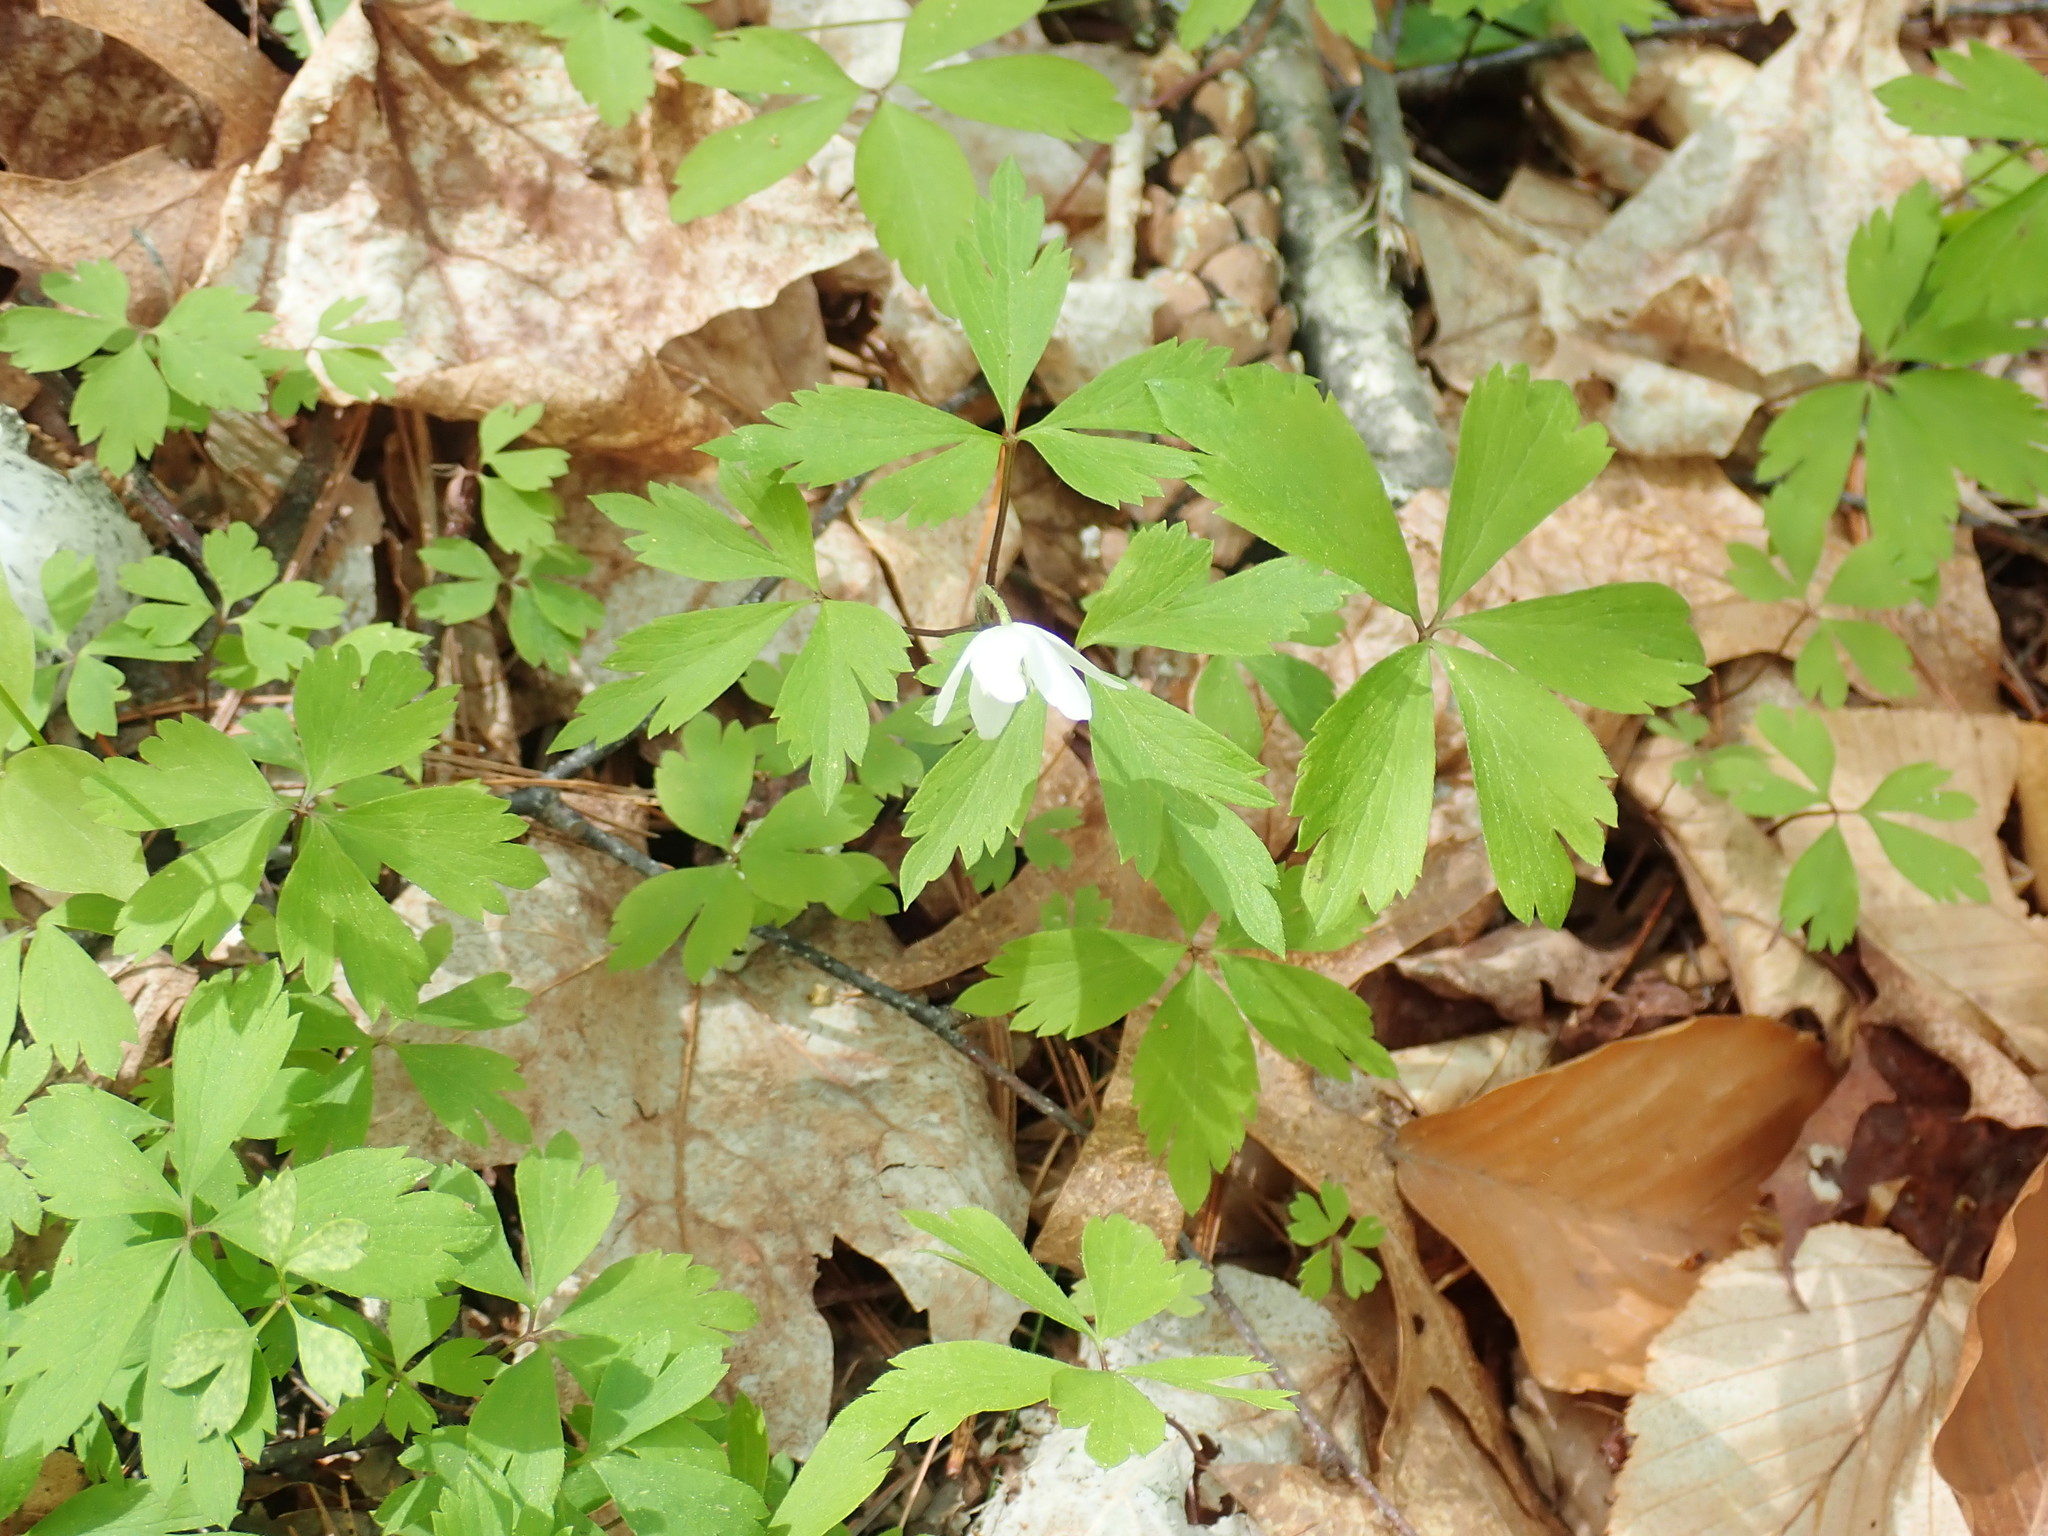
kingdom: Plantae
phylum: Tracheophyta
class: Magnoliopsida
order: Ranunculales
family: Ranunculaceae
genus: Anemone
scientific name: Anemone quinquefolia
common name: Wood anemone
